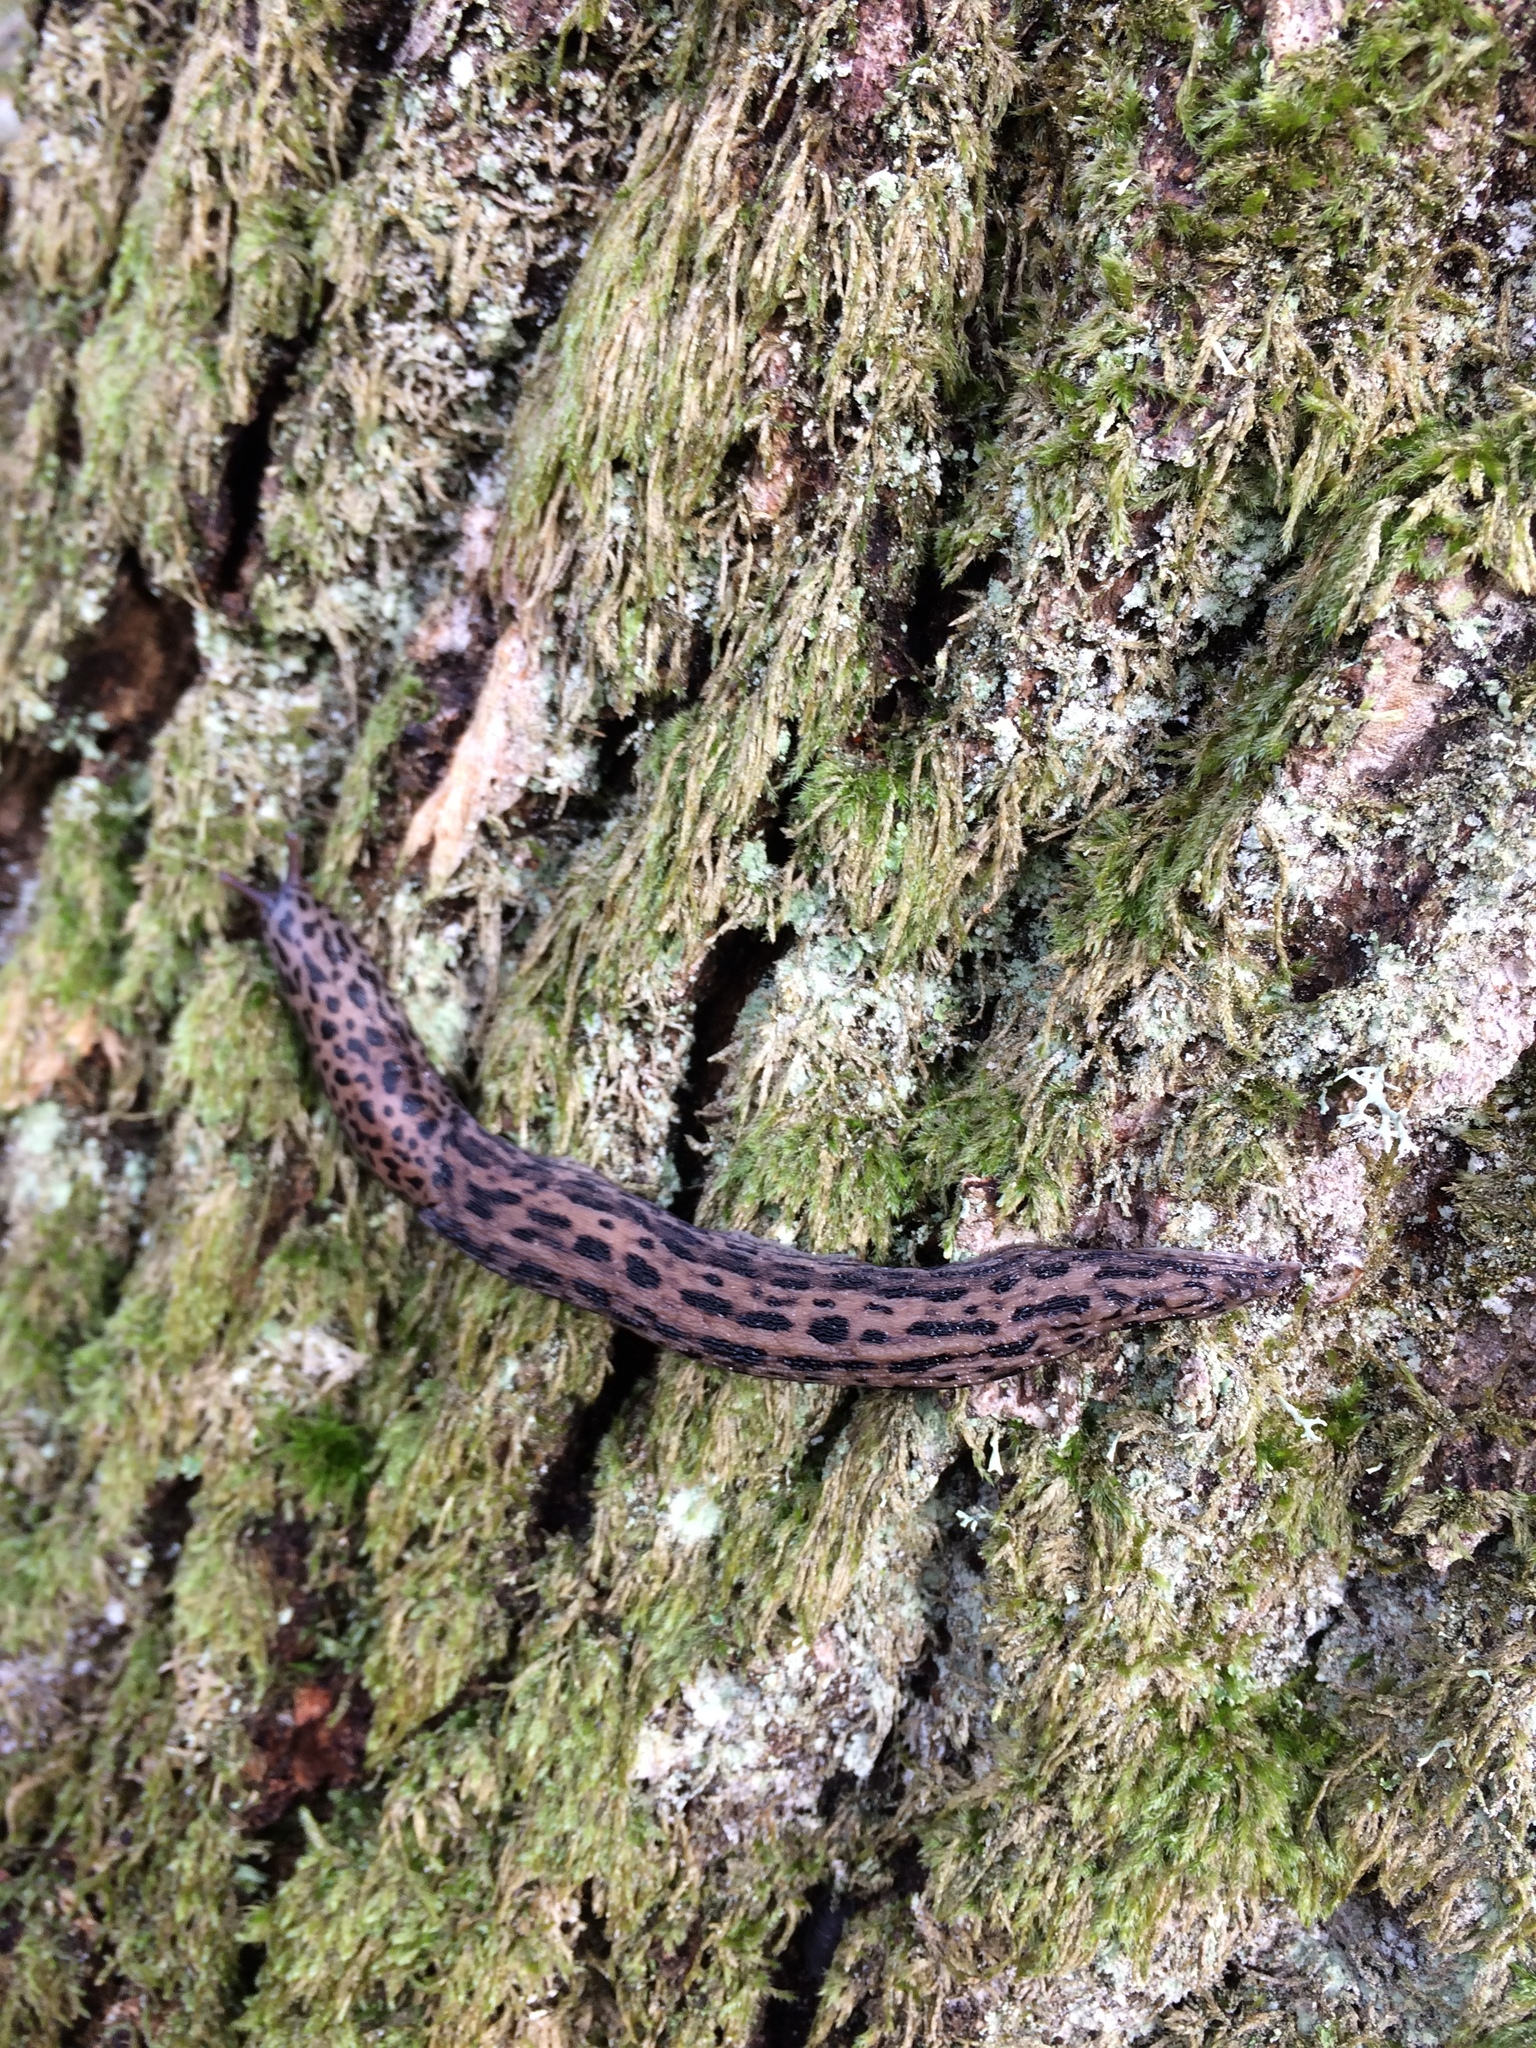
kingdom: Animalia
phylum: Mollusca
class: Gastropoda
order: Stylommatophora
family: Limacidae
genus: Limax
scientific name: Limax maximus
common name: Great grey slug
